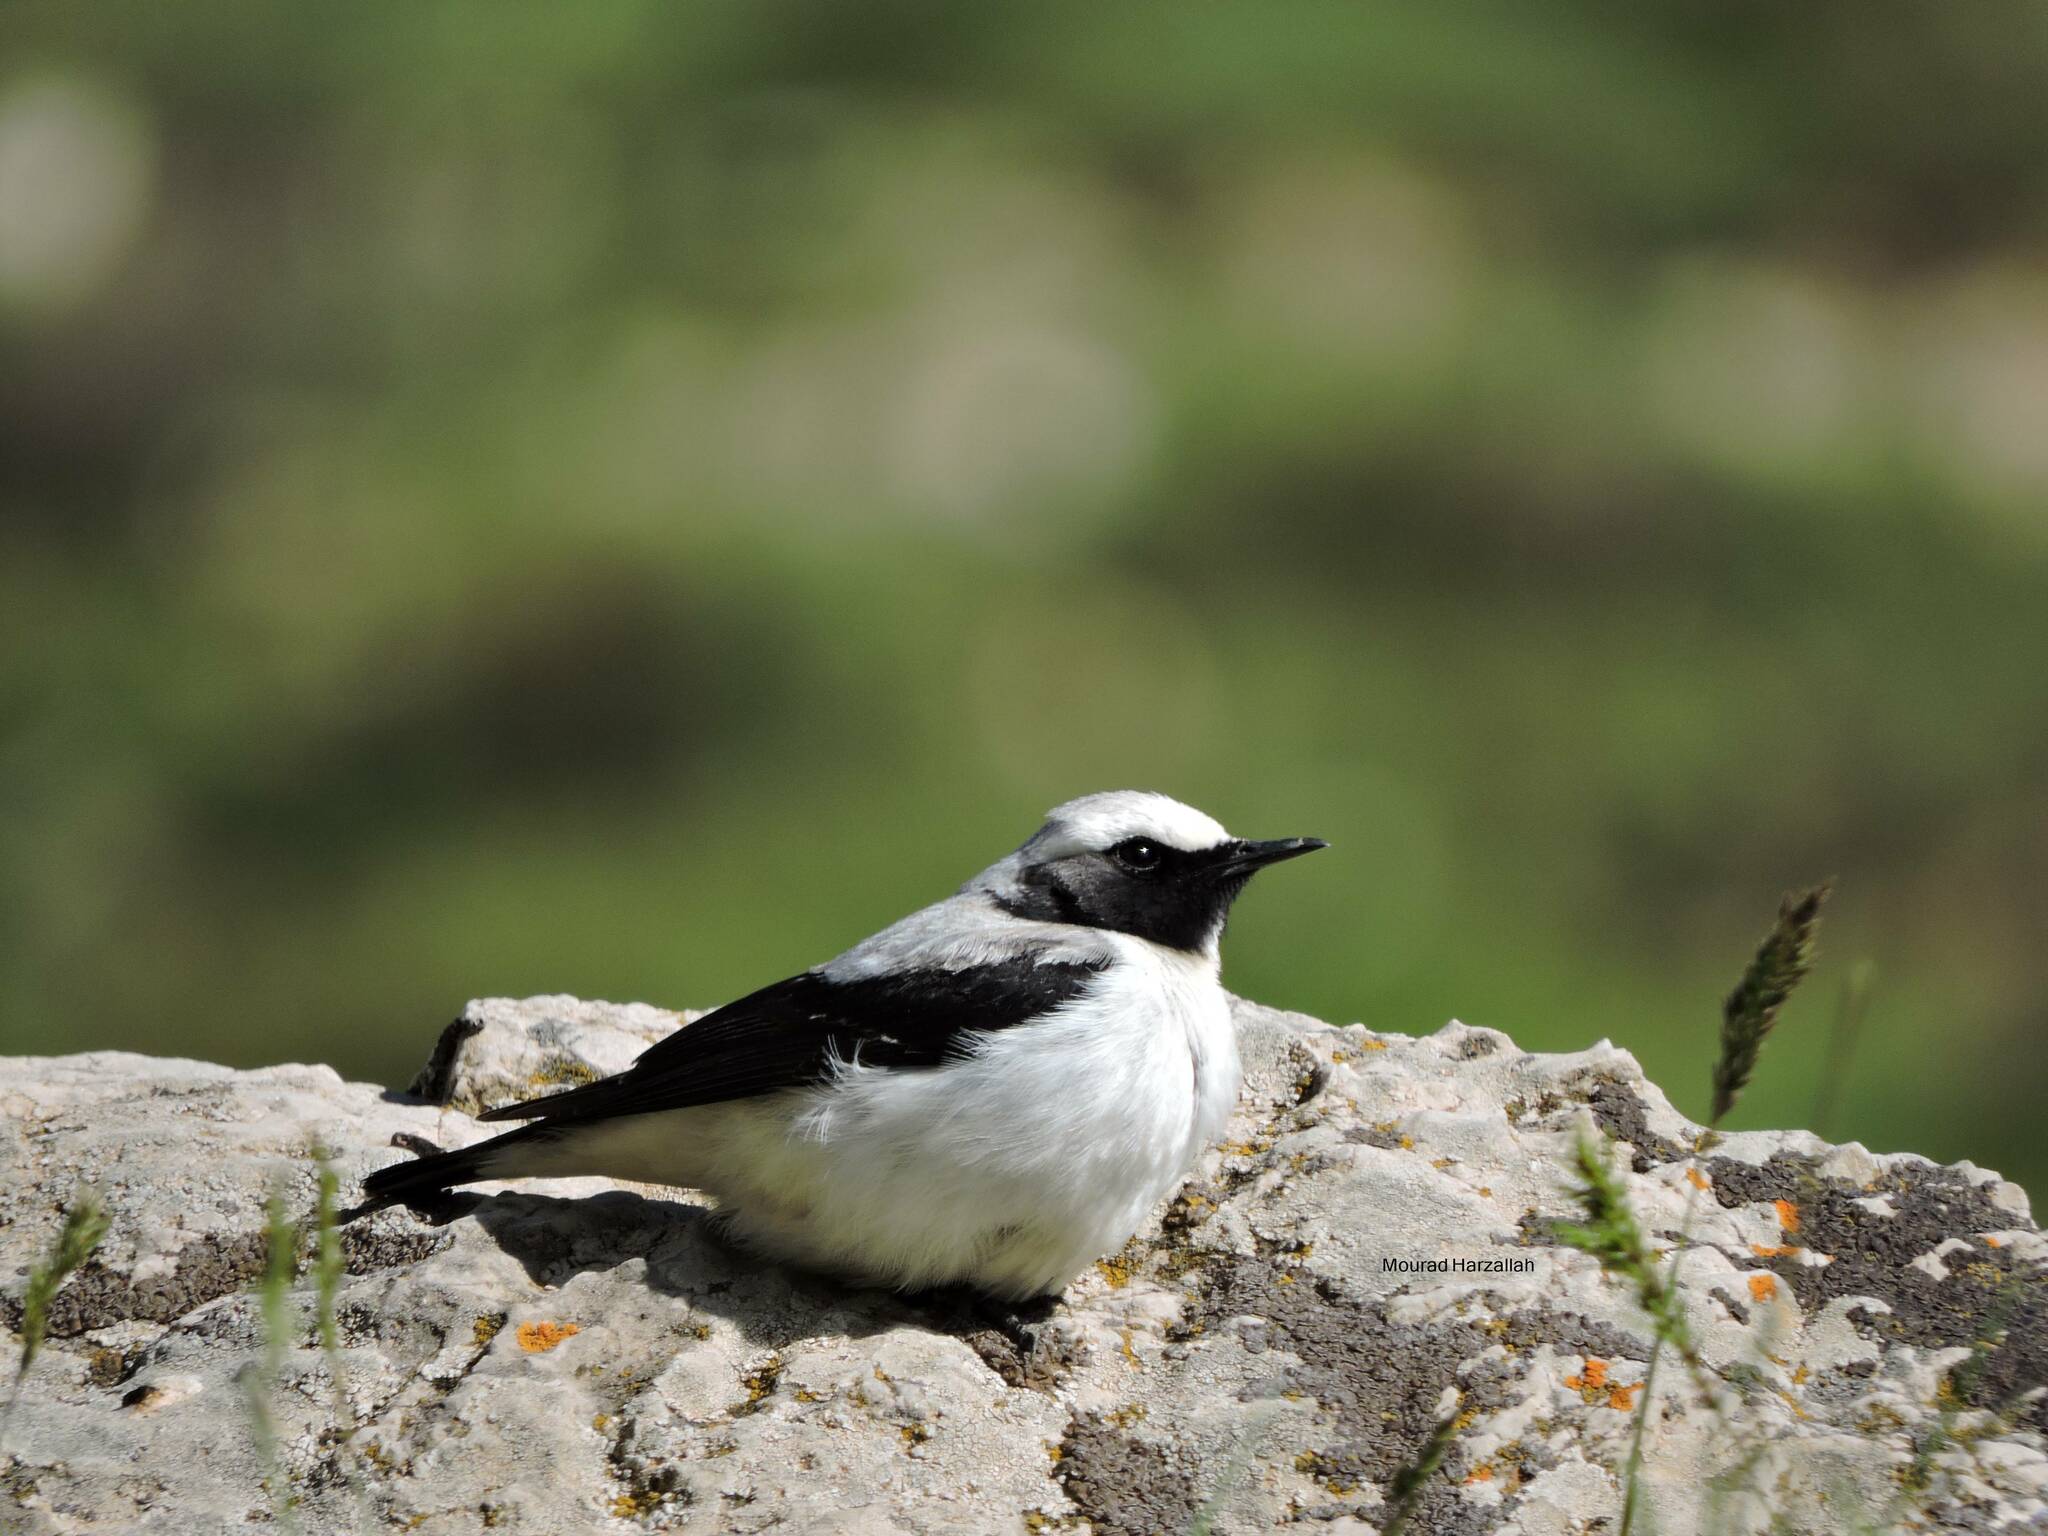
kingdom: Animalia
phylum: Chordata
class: Aves
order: Passeriformes
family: Muscicapidae
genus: Oenanthe
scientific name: Oenanthe oenanthe
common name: Northern wheatear
